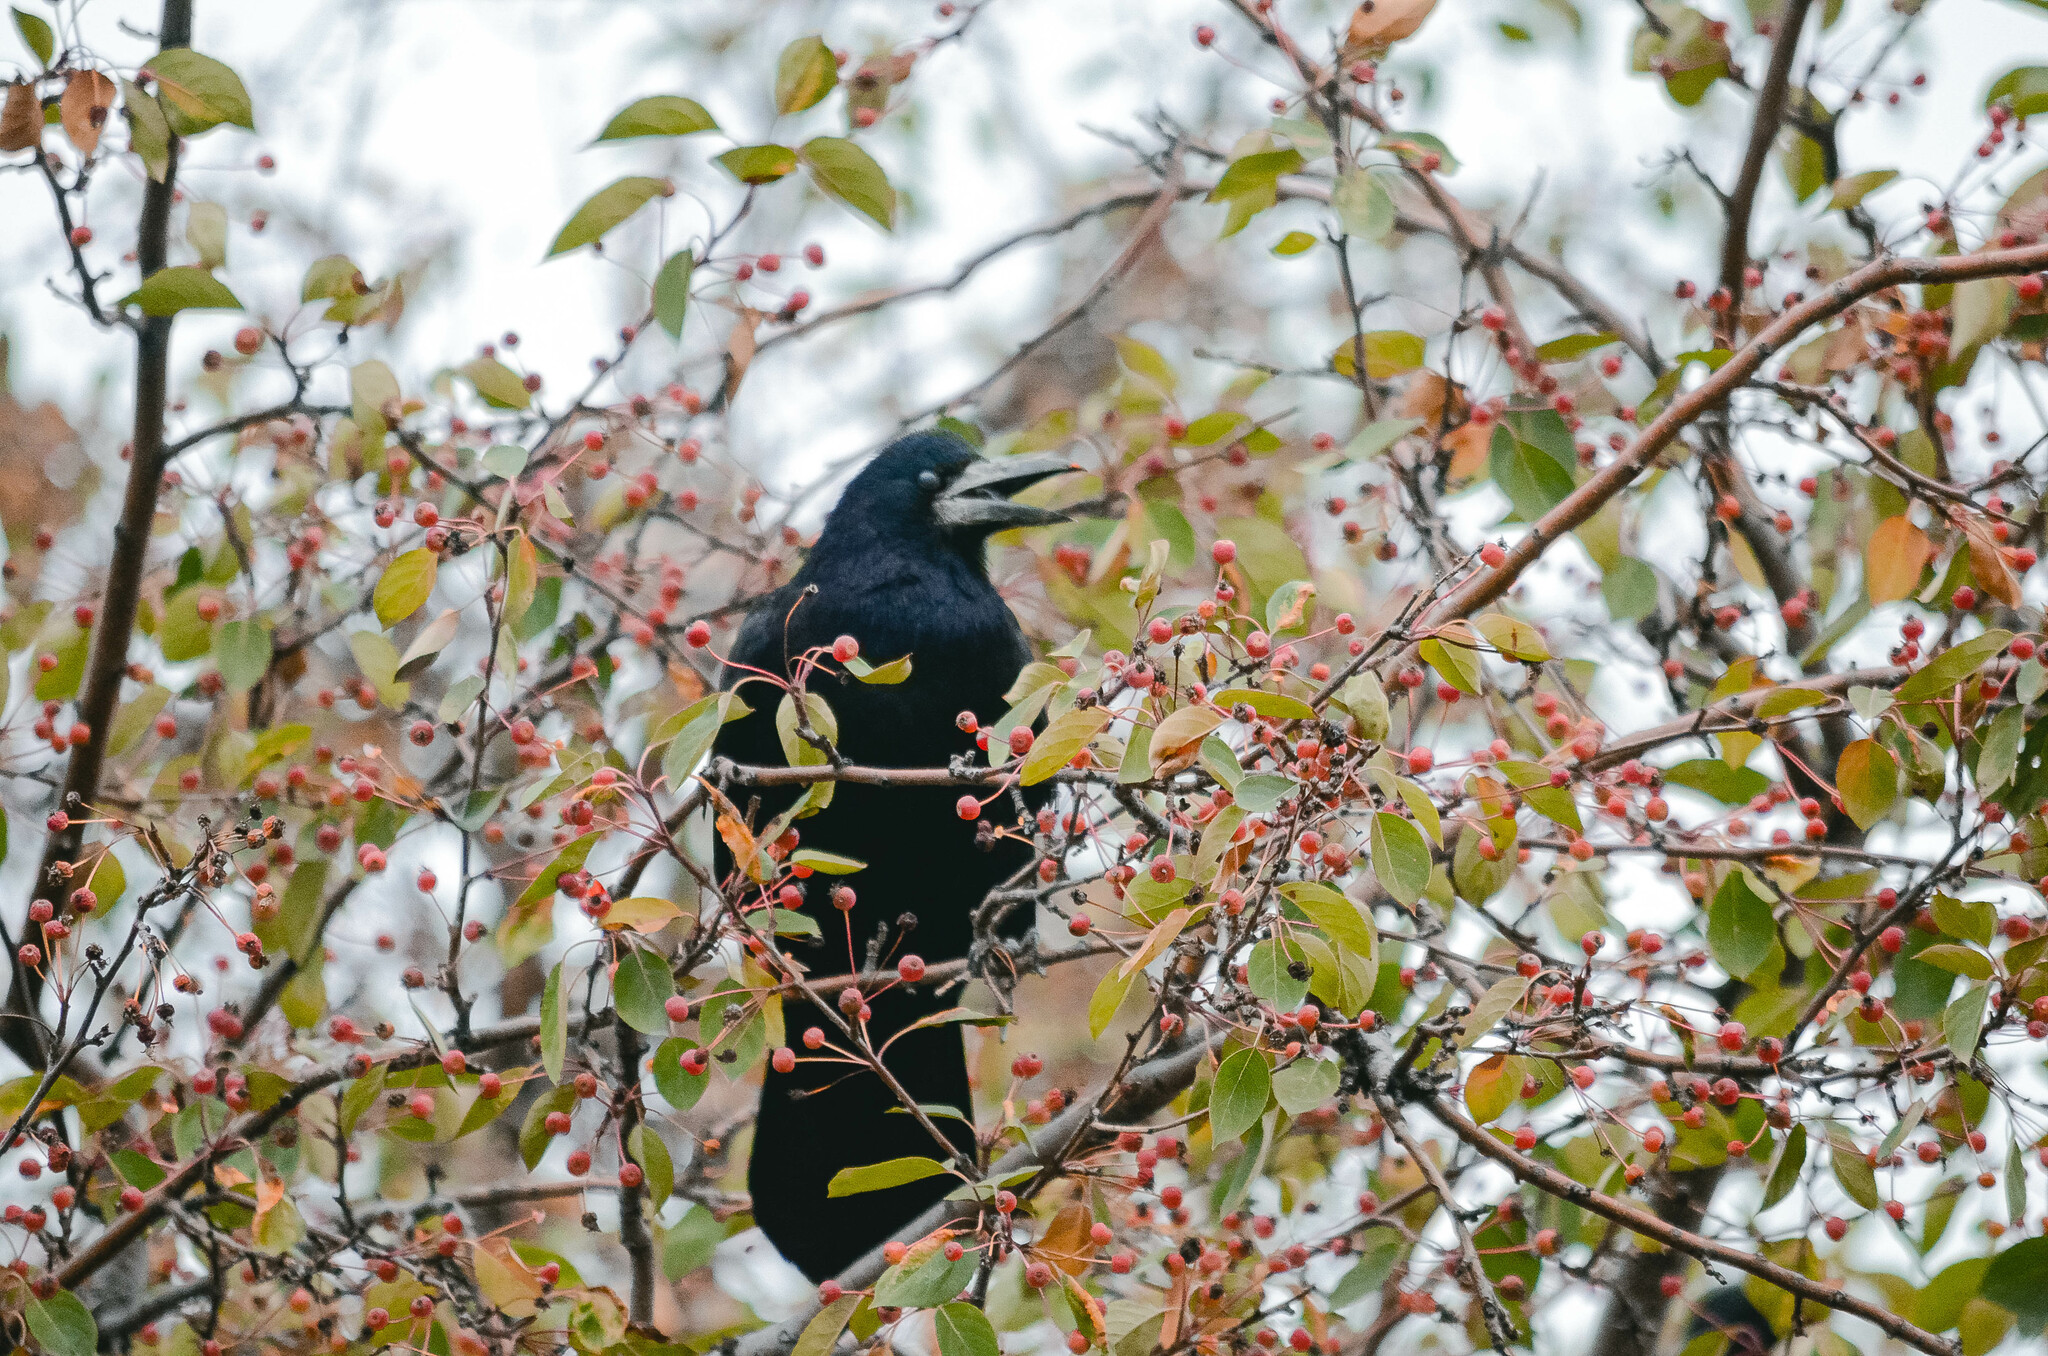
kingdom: Animalia
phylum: Chordata
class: Aves
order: Passeriformes
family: Corvidae
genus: Corvus
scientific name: Corvus frugilegus
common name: Rook
